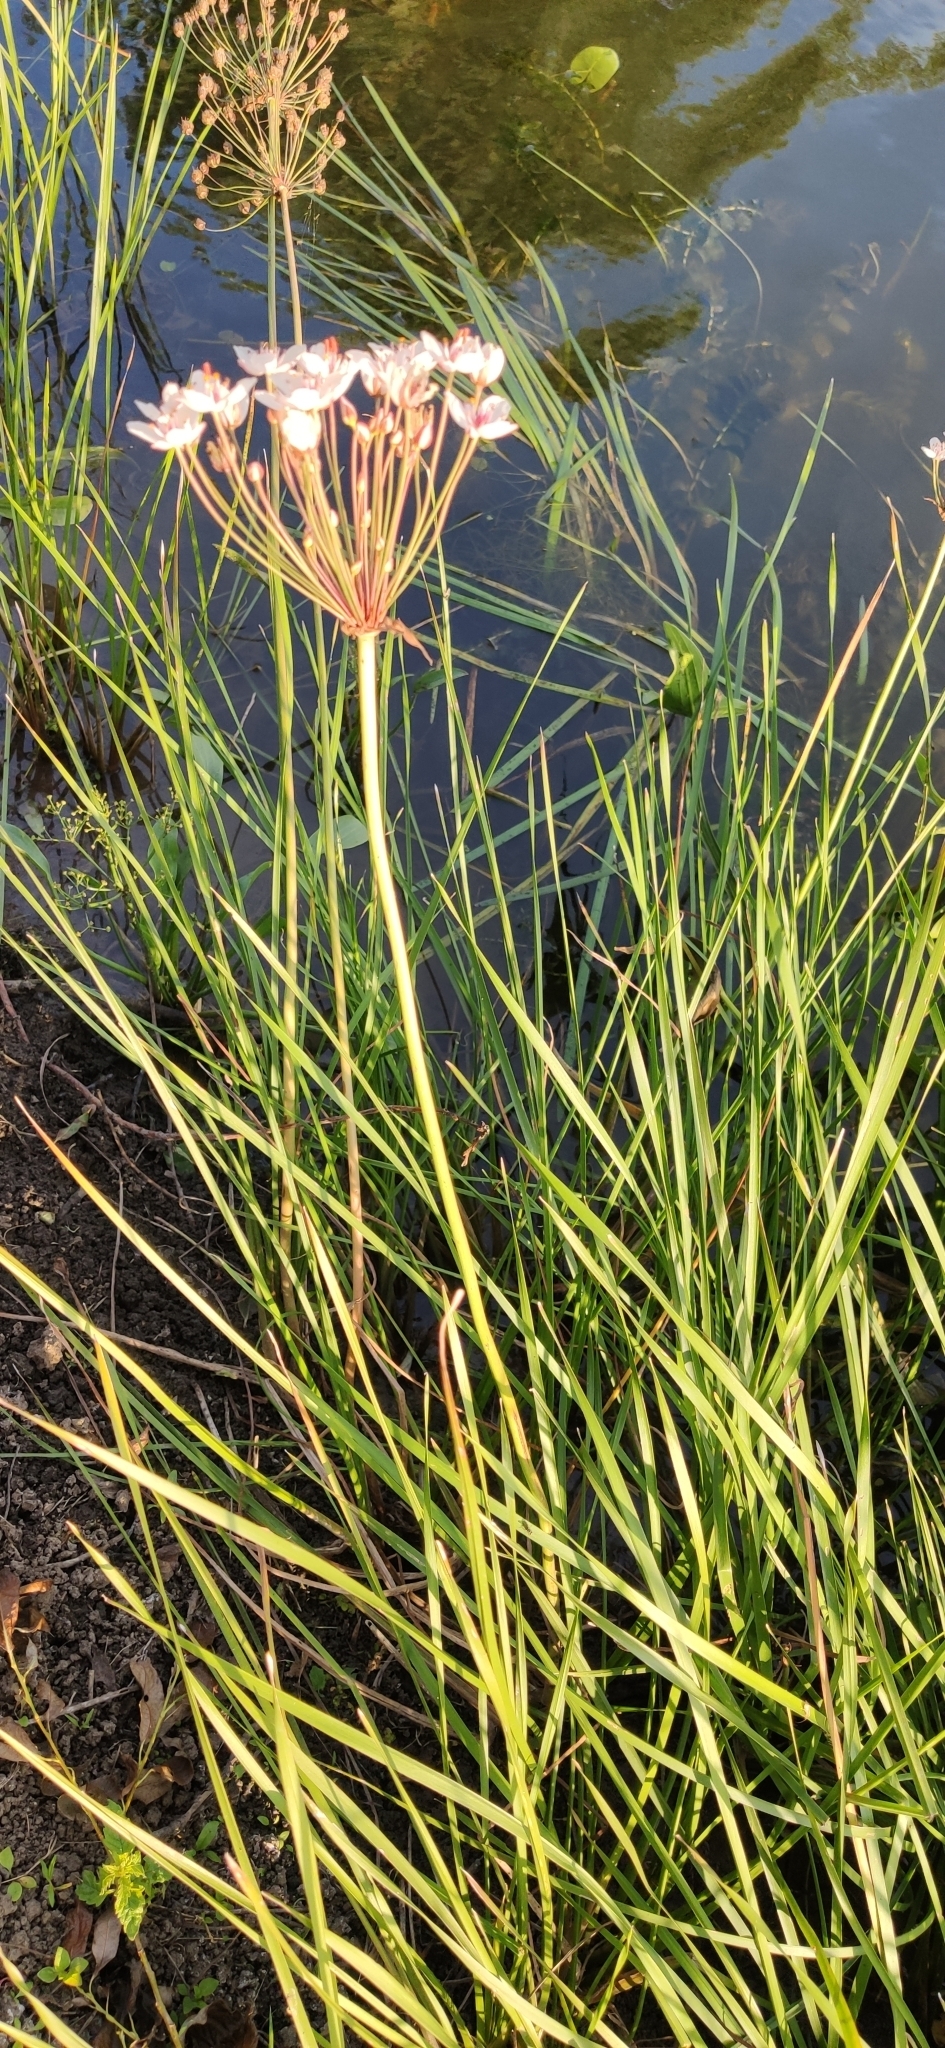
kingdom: Plantae
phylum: Tracheophyta
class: Liliopsida
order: Alismatales
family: Butomaceae
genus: Butomus
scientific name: Butomus umbellatus
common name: Flowering-rush
